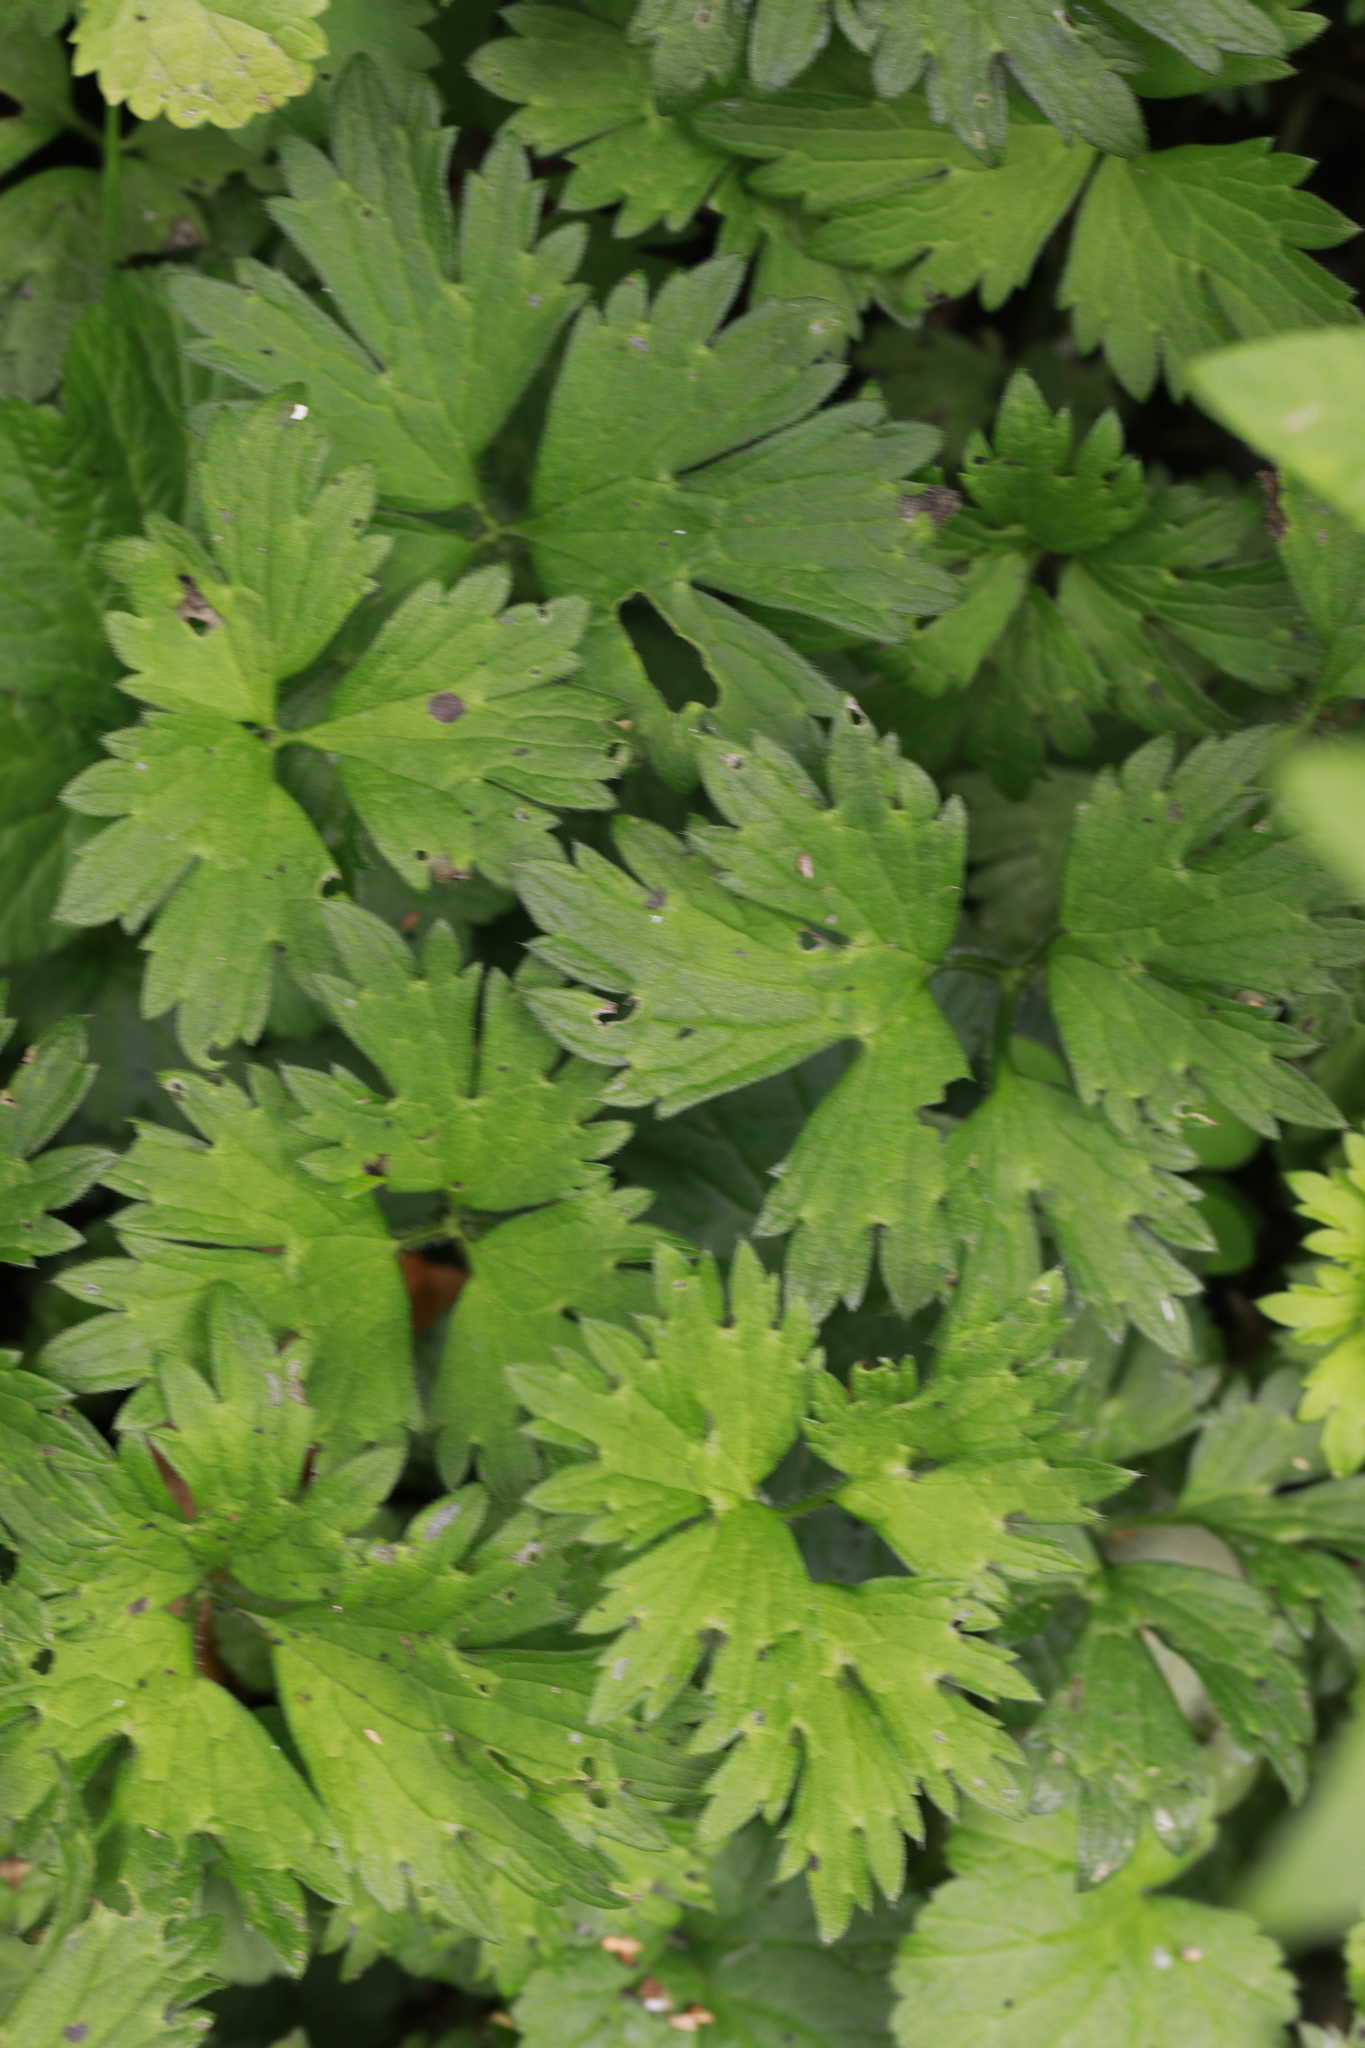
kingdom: Plantae
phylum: Tracheophyta
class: Magnoliopsida
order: Ranunculales
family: Ranunculaceae
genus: Ranunculus
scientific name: Ranunculus repens
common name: Creeping buttercup
